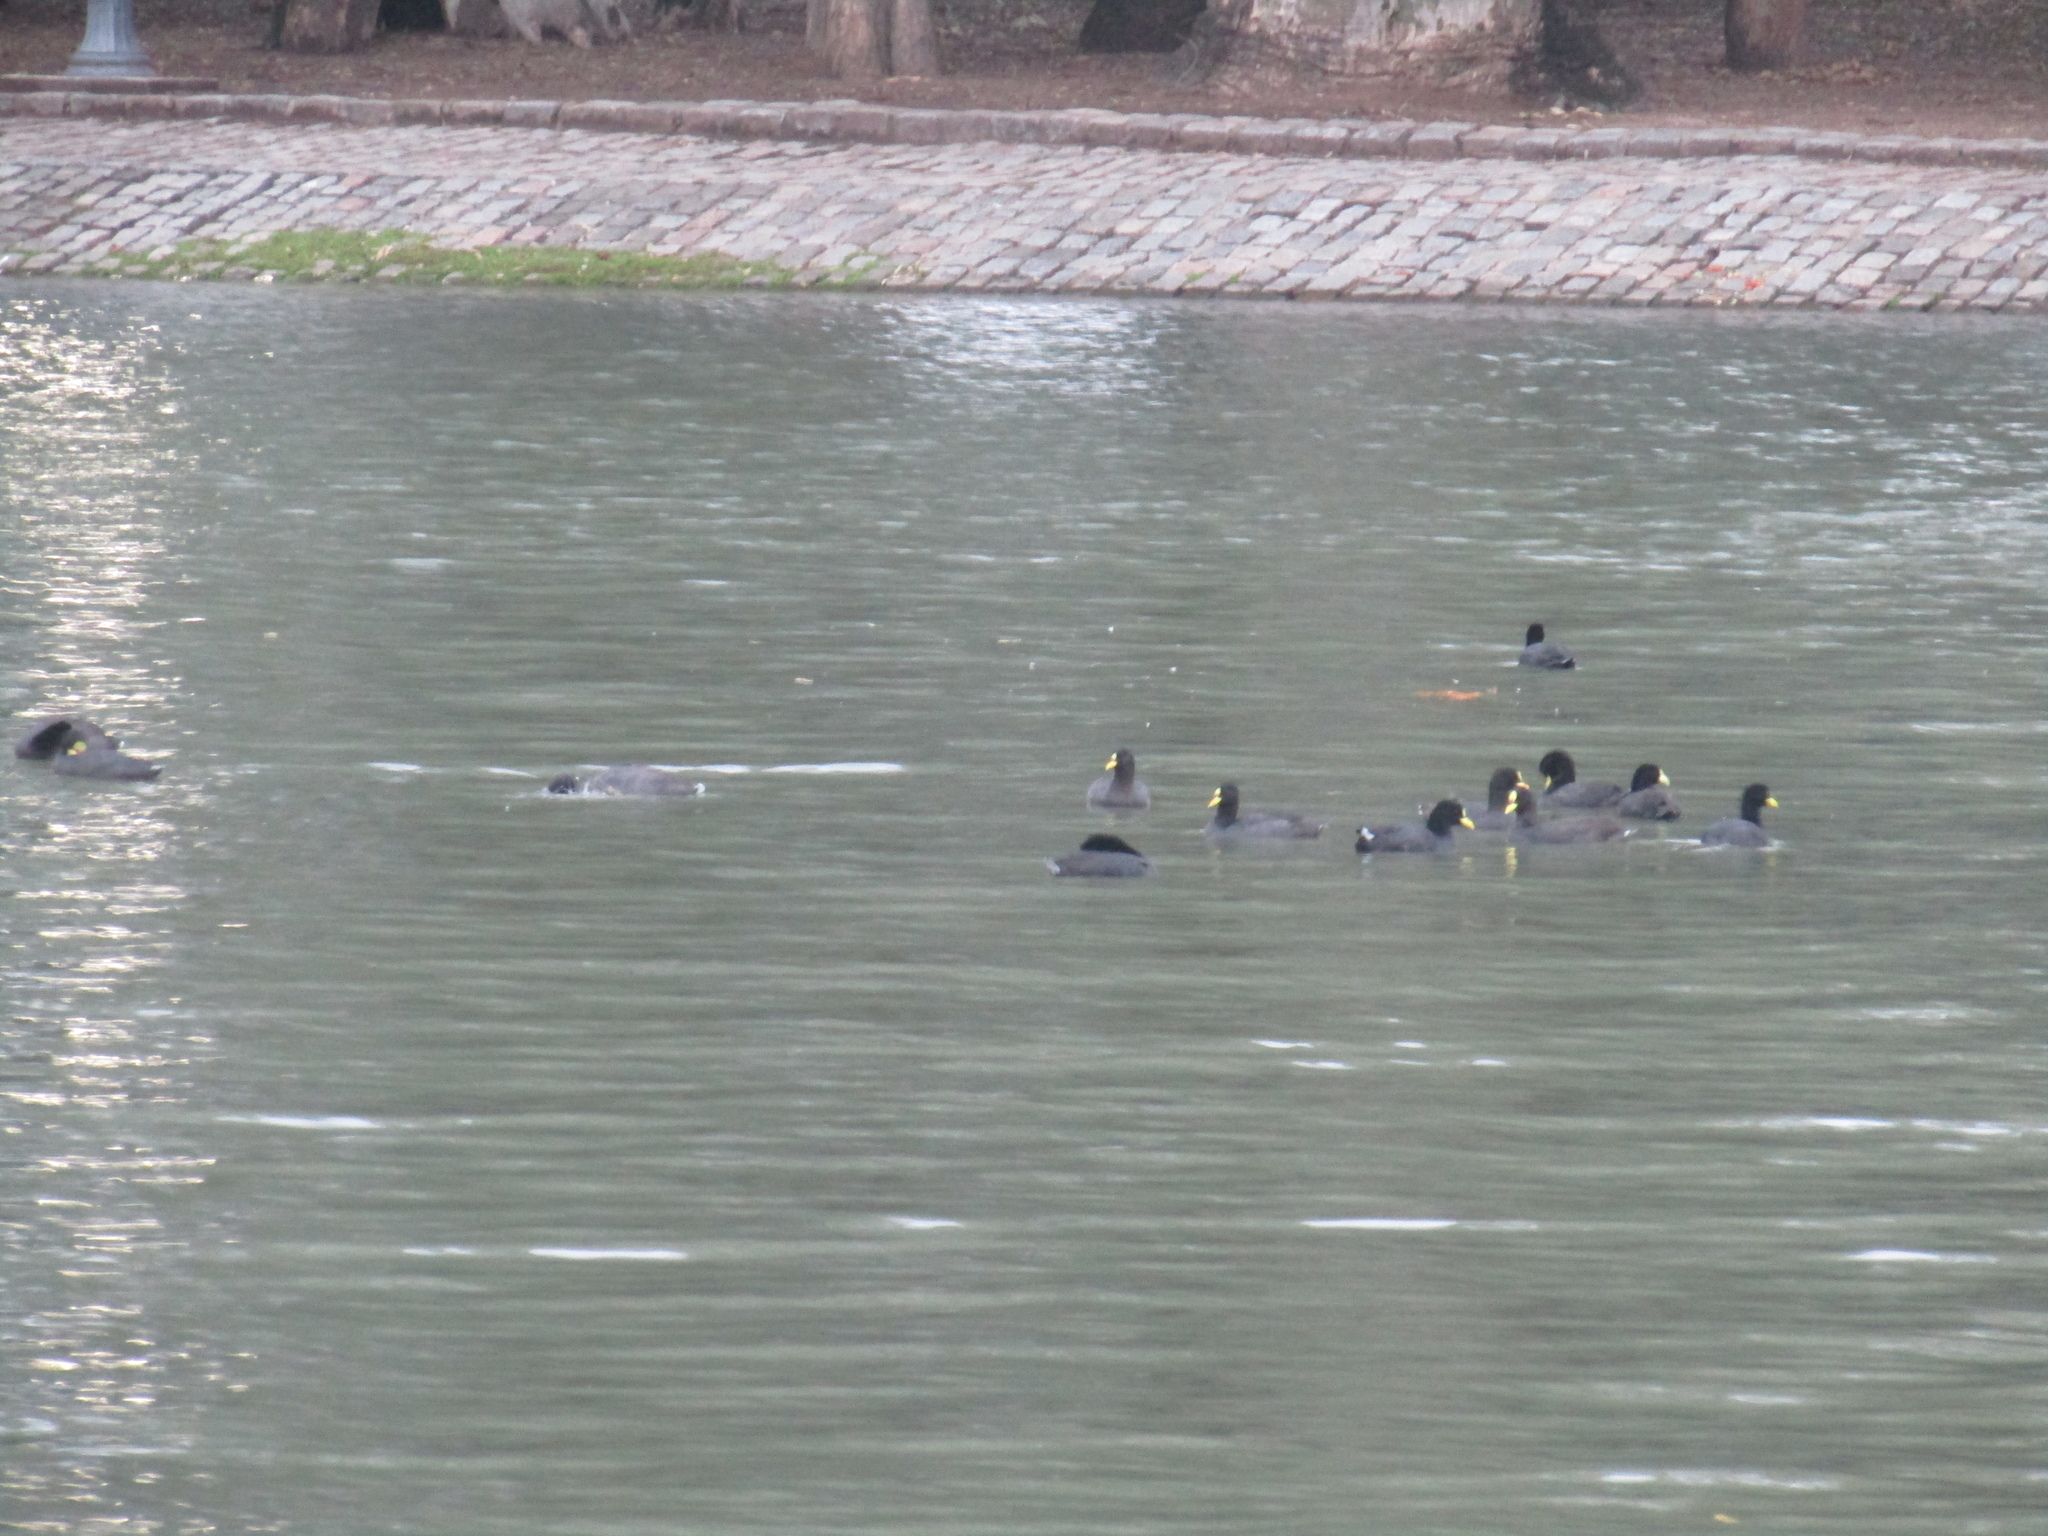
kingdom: Animalia
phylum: Chordata
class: Aves
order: Gruiformes
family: Rallidae
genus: Fulica
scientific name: Fulica armillata
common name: Red-gartered coot
